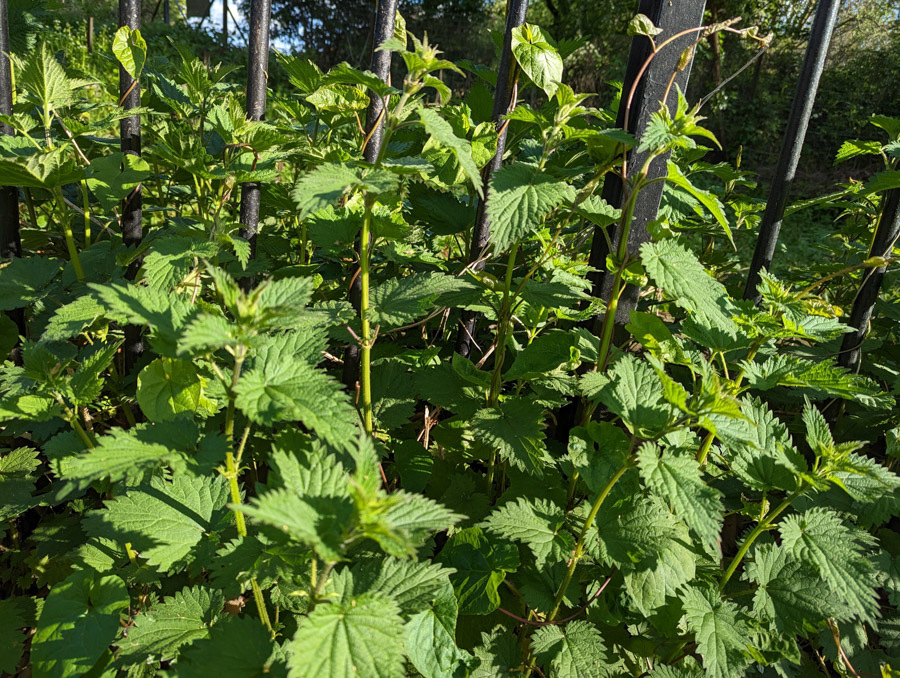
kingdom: Plantae
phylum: Tracheophyta
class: Magnoliopsida
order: Rosales
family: Urticaceae
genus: Urtica
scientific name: Urtica dioica
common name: Common nettle
